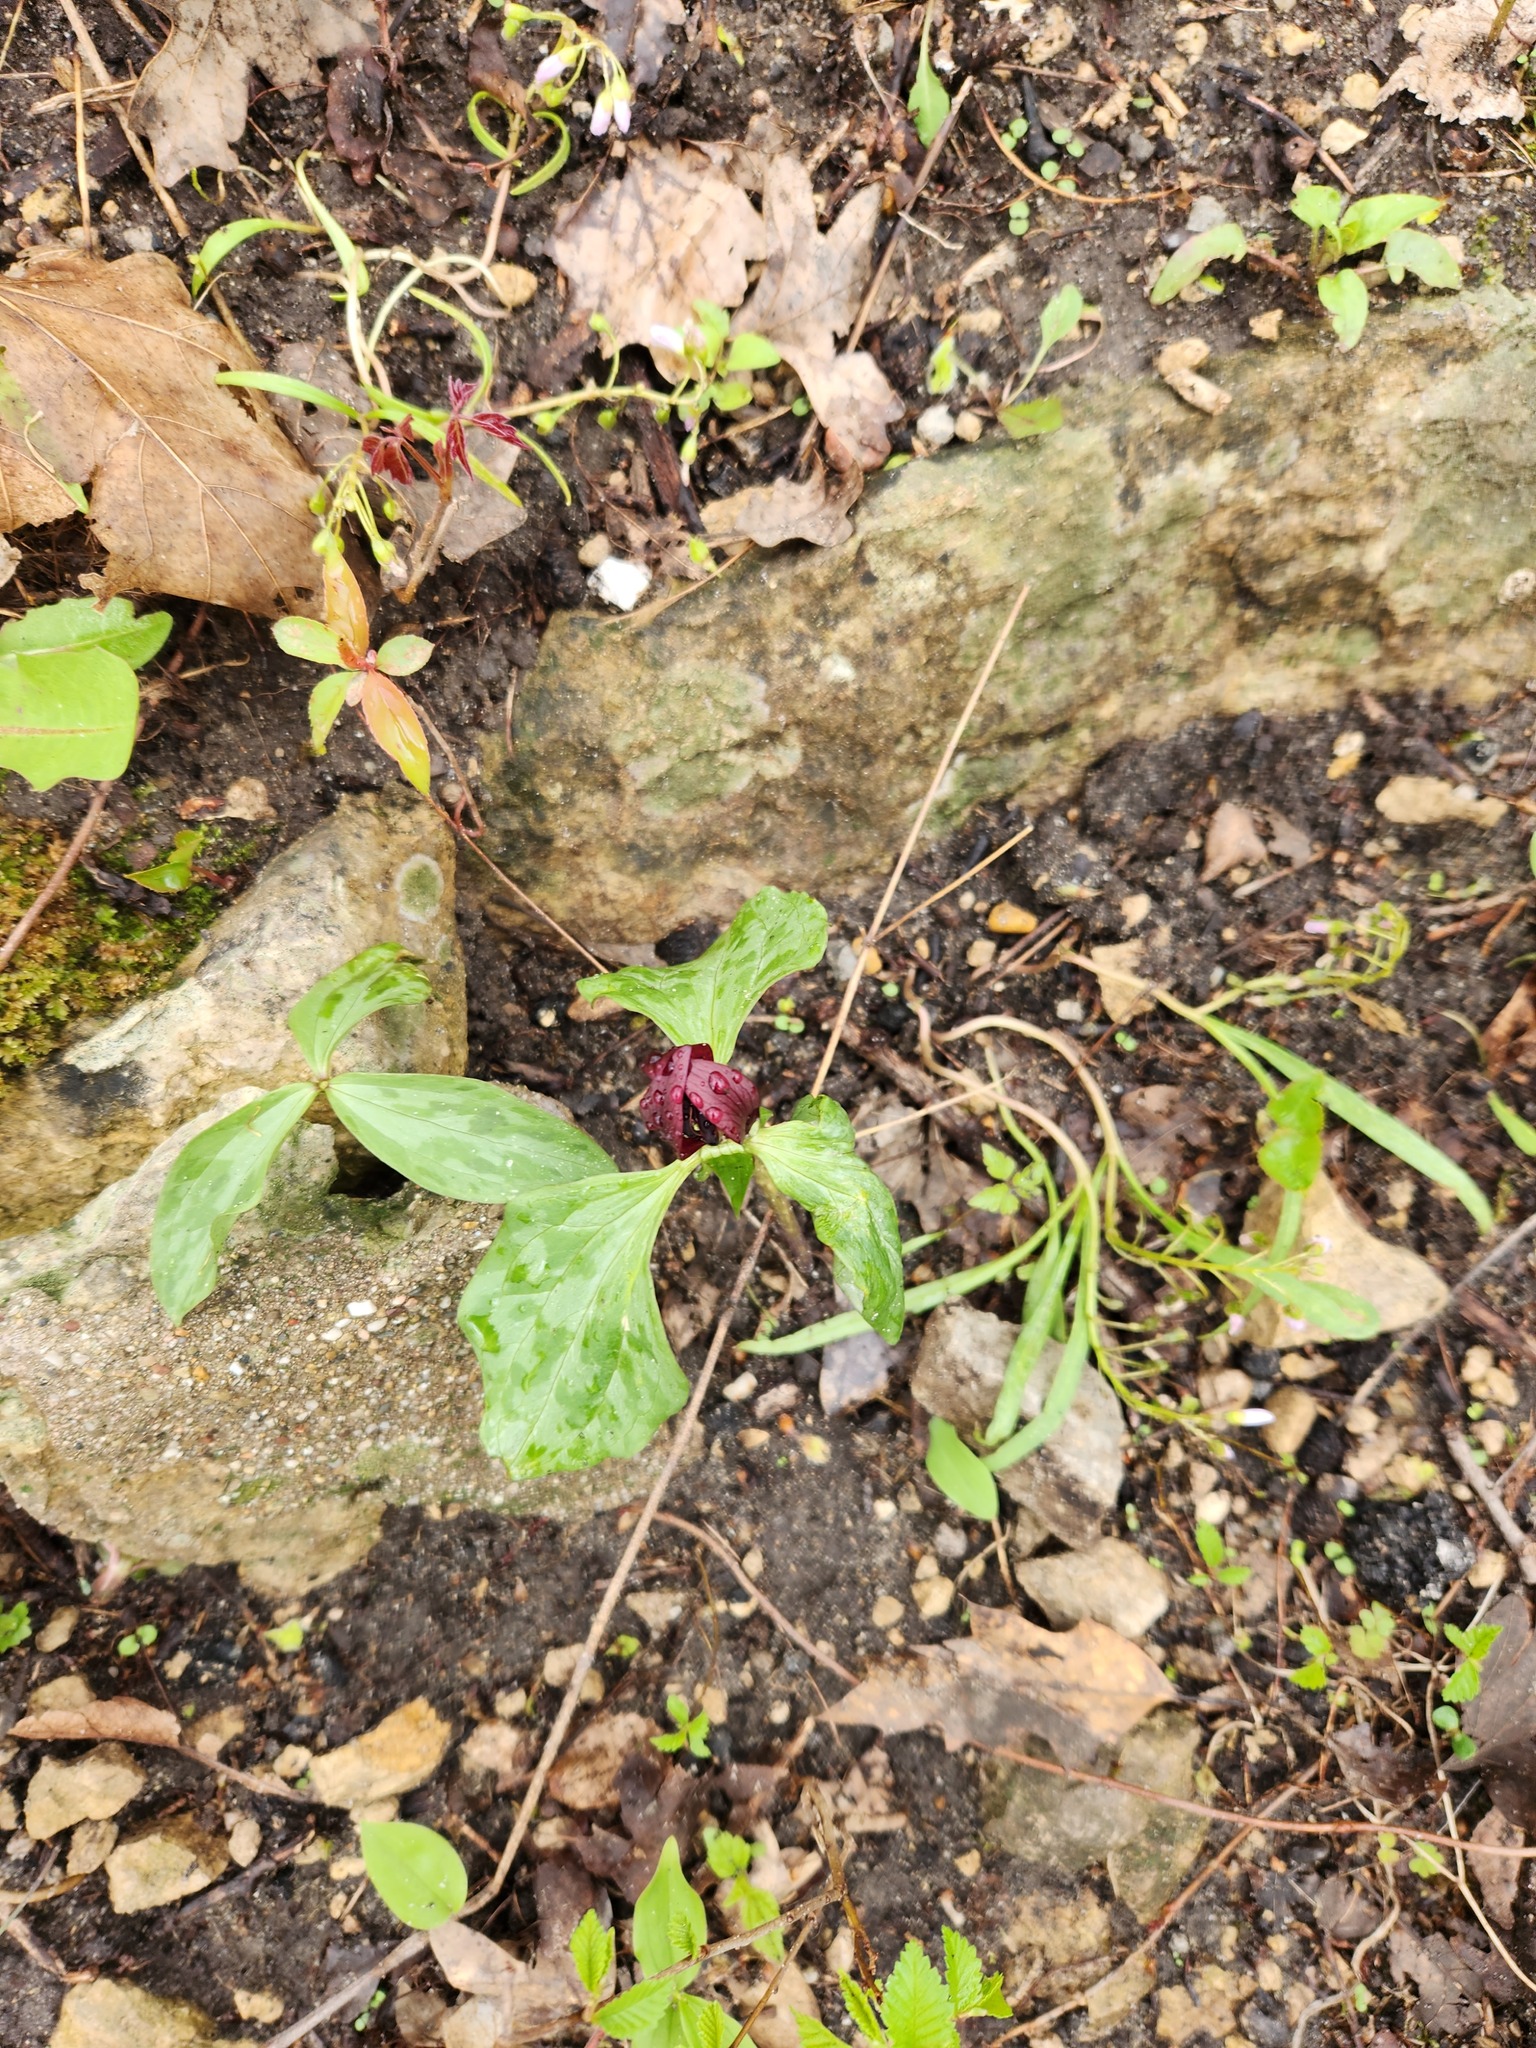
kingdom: Plantae
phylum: Tracheophyta
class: Liliopsida
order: Liliales
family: Melanthiaceae
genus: Trillium
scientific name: Trillium recurvatum
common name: Bloody butcher
